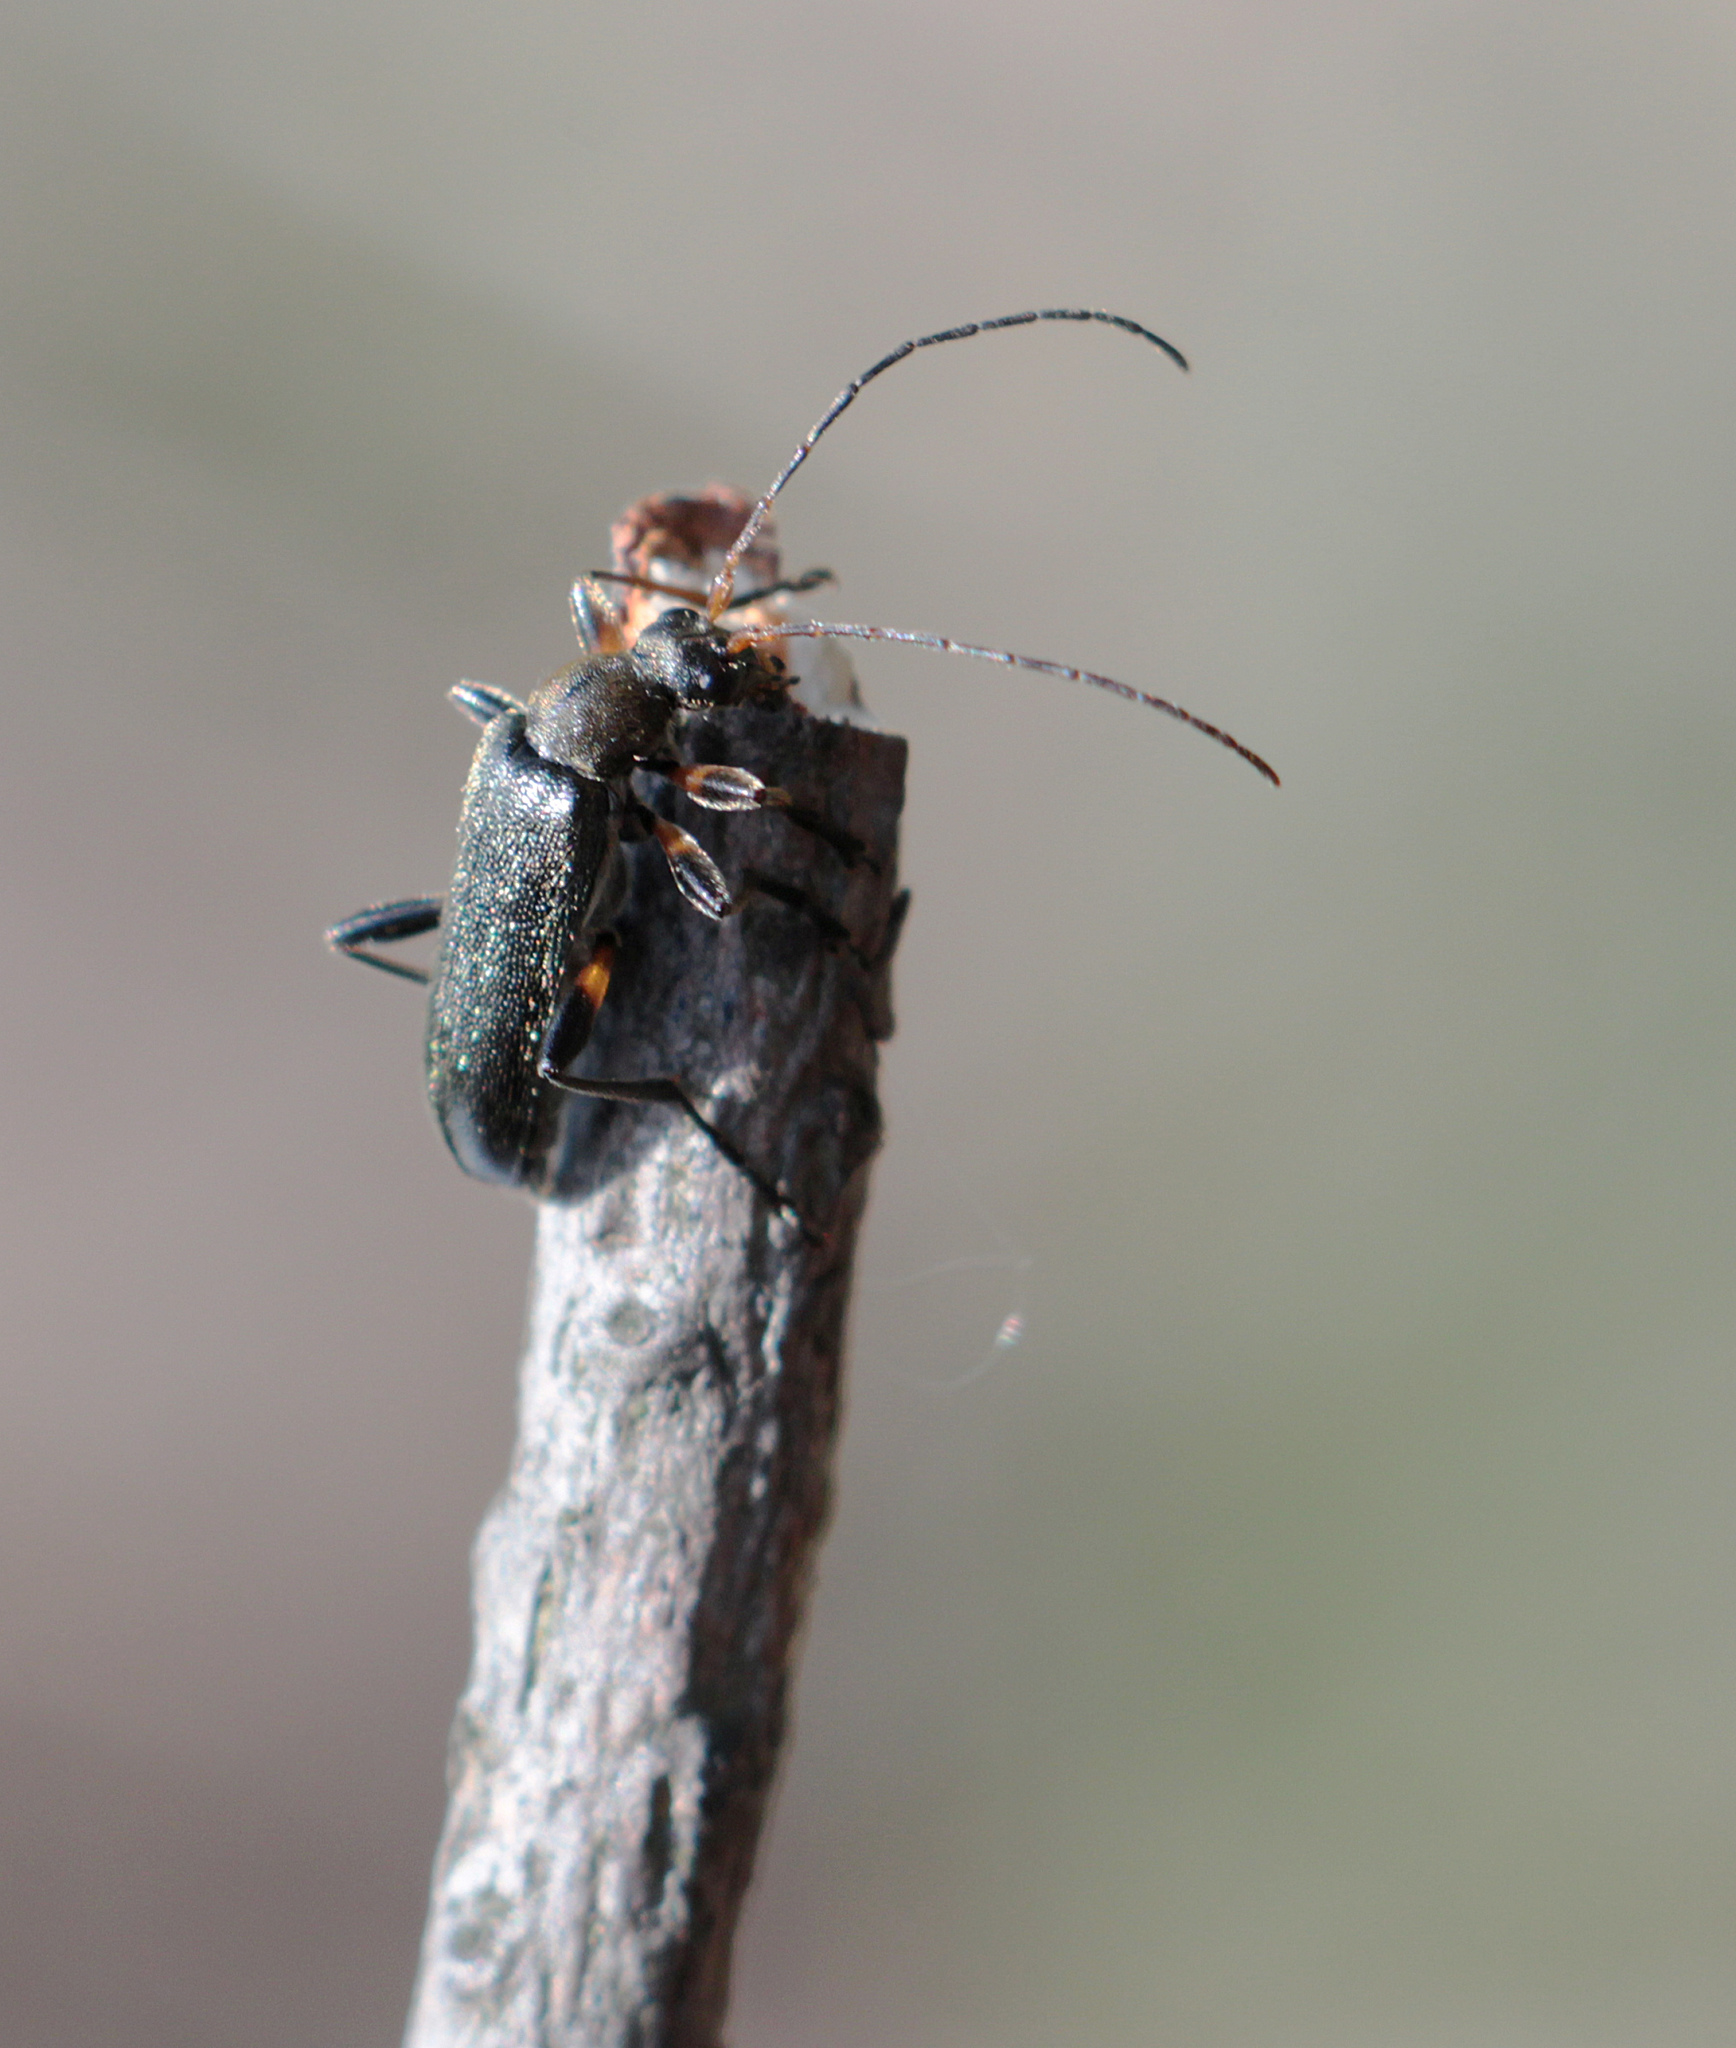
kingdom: Animalia
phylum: Arthropoda
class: Insecta
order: Coleoptera
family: Cerambycidae
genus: Cortodera
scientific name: Cortodera femorata
